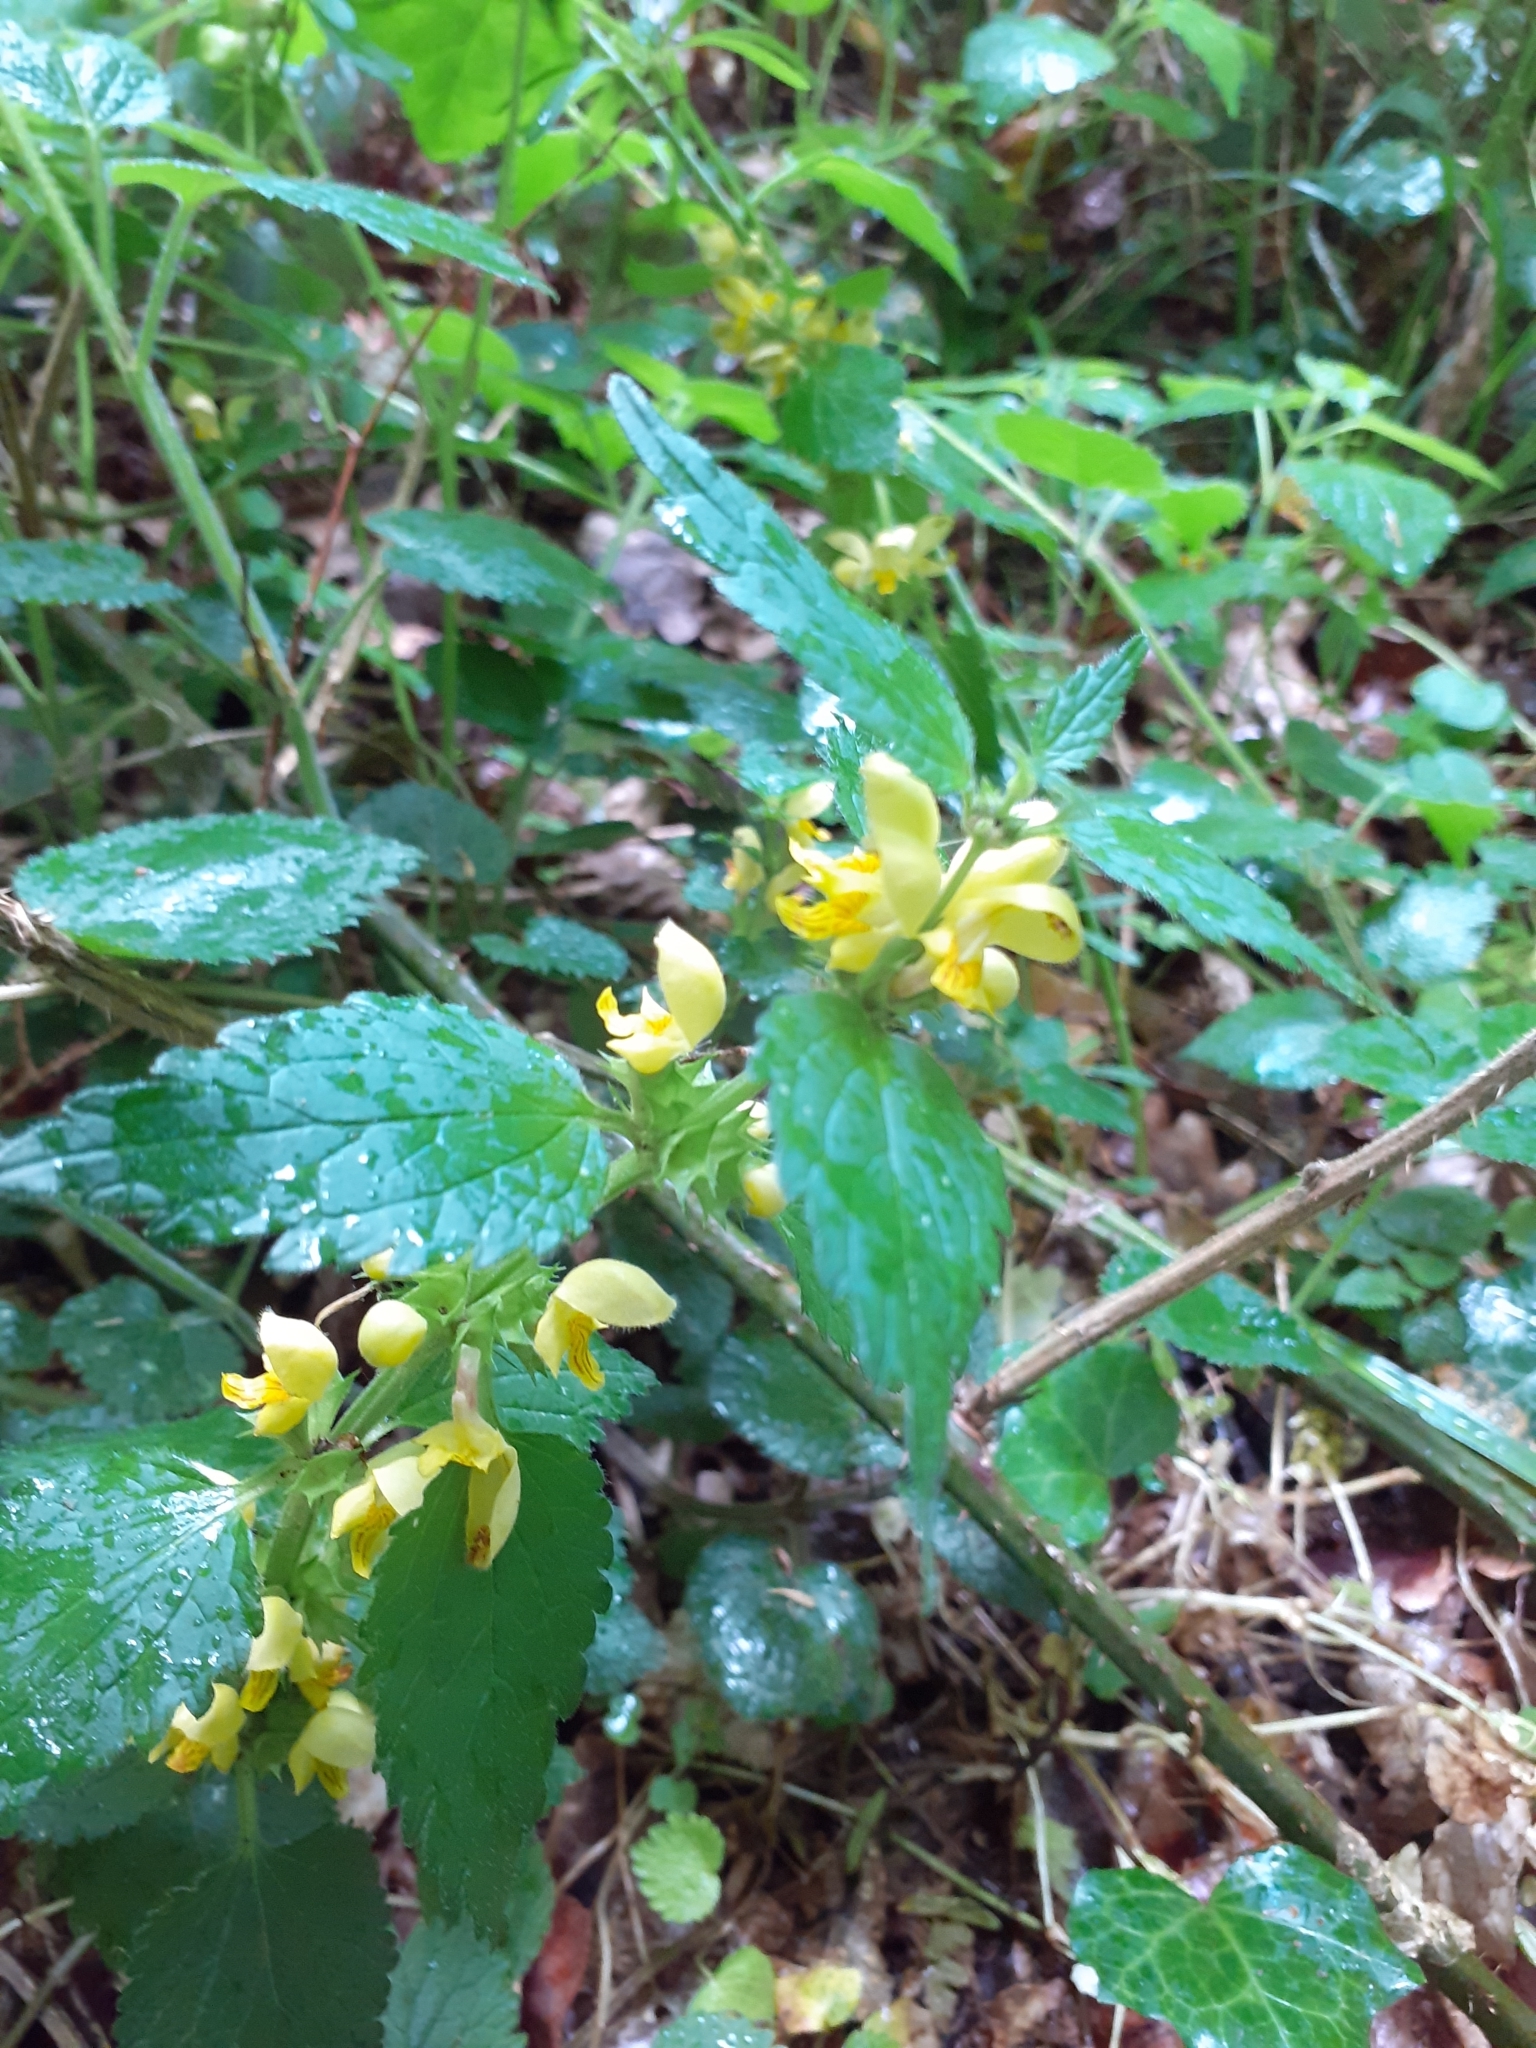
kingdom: Plantae
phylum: Tracheophyta
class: Magnoliopsida
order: Lamiales
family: Lamiaceae
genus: Lamium
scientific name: Lamium galeobdolon
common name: Yellow archangel
